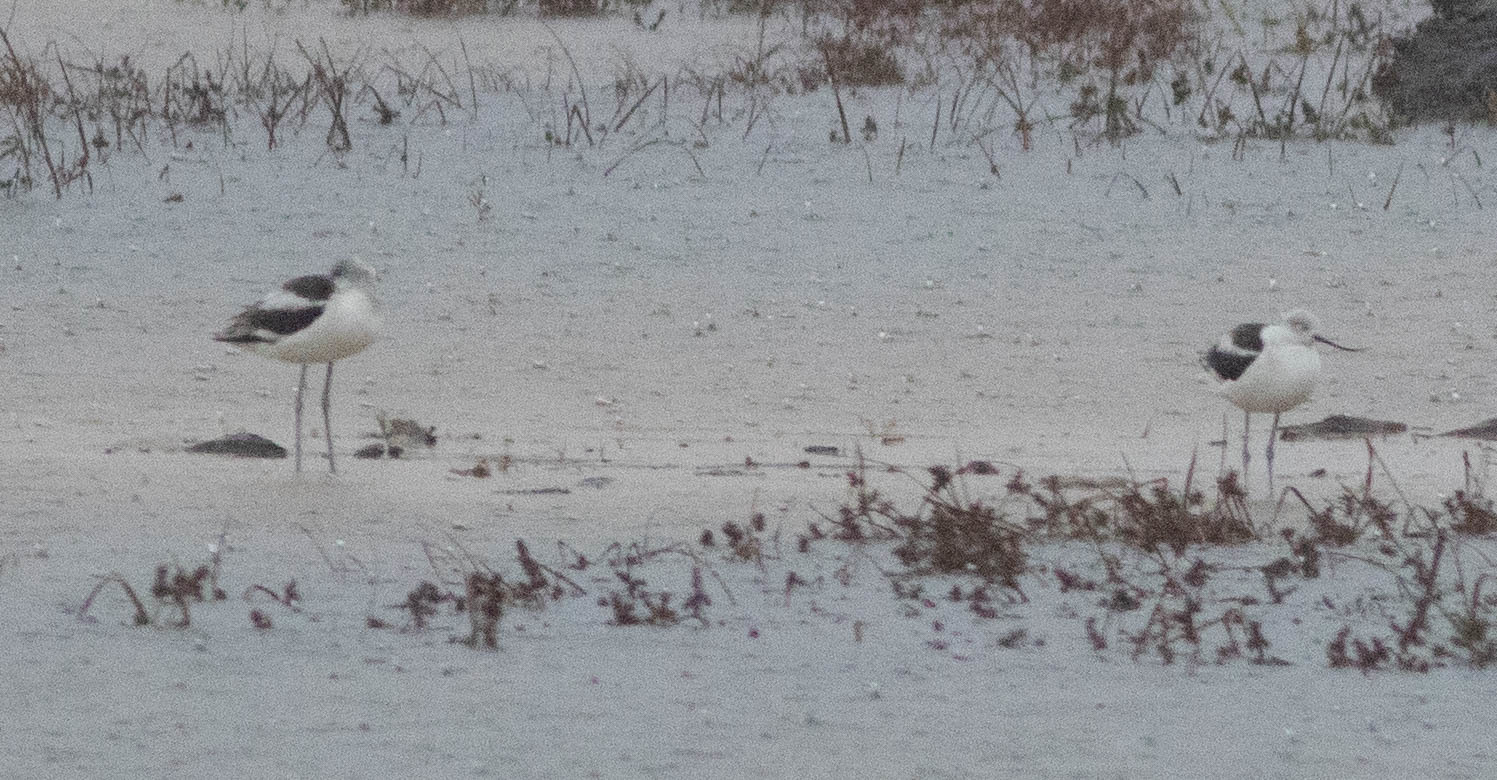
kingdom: Animalia
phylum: Chordata
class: Aves
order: Charadriiformes
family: Recurvirostridae
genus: Recurvirostra
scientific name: Recurvirostra americana
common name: American avocet
